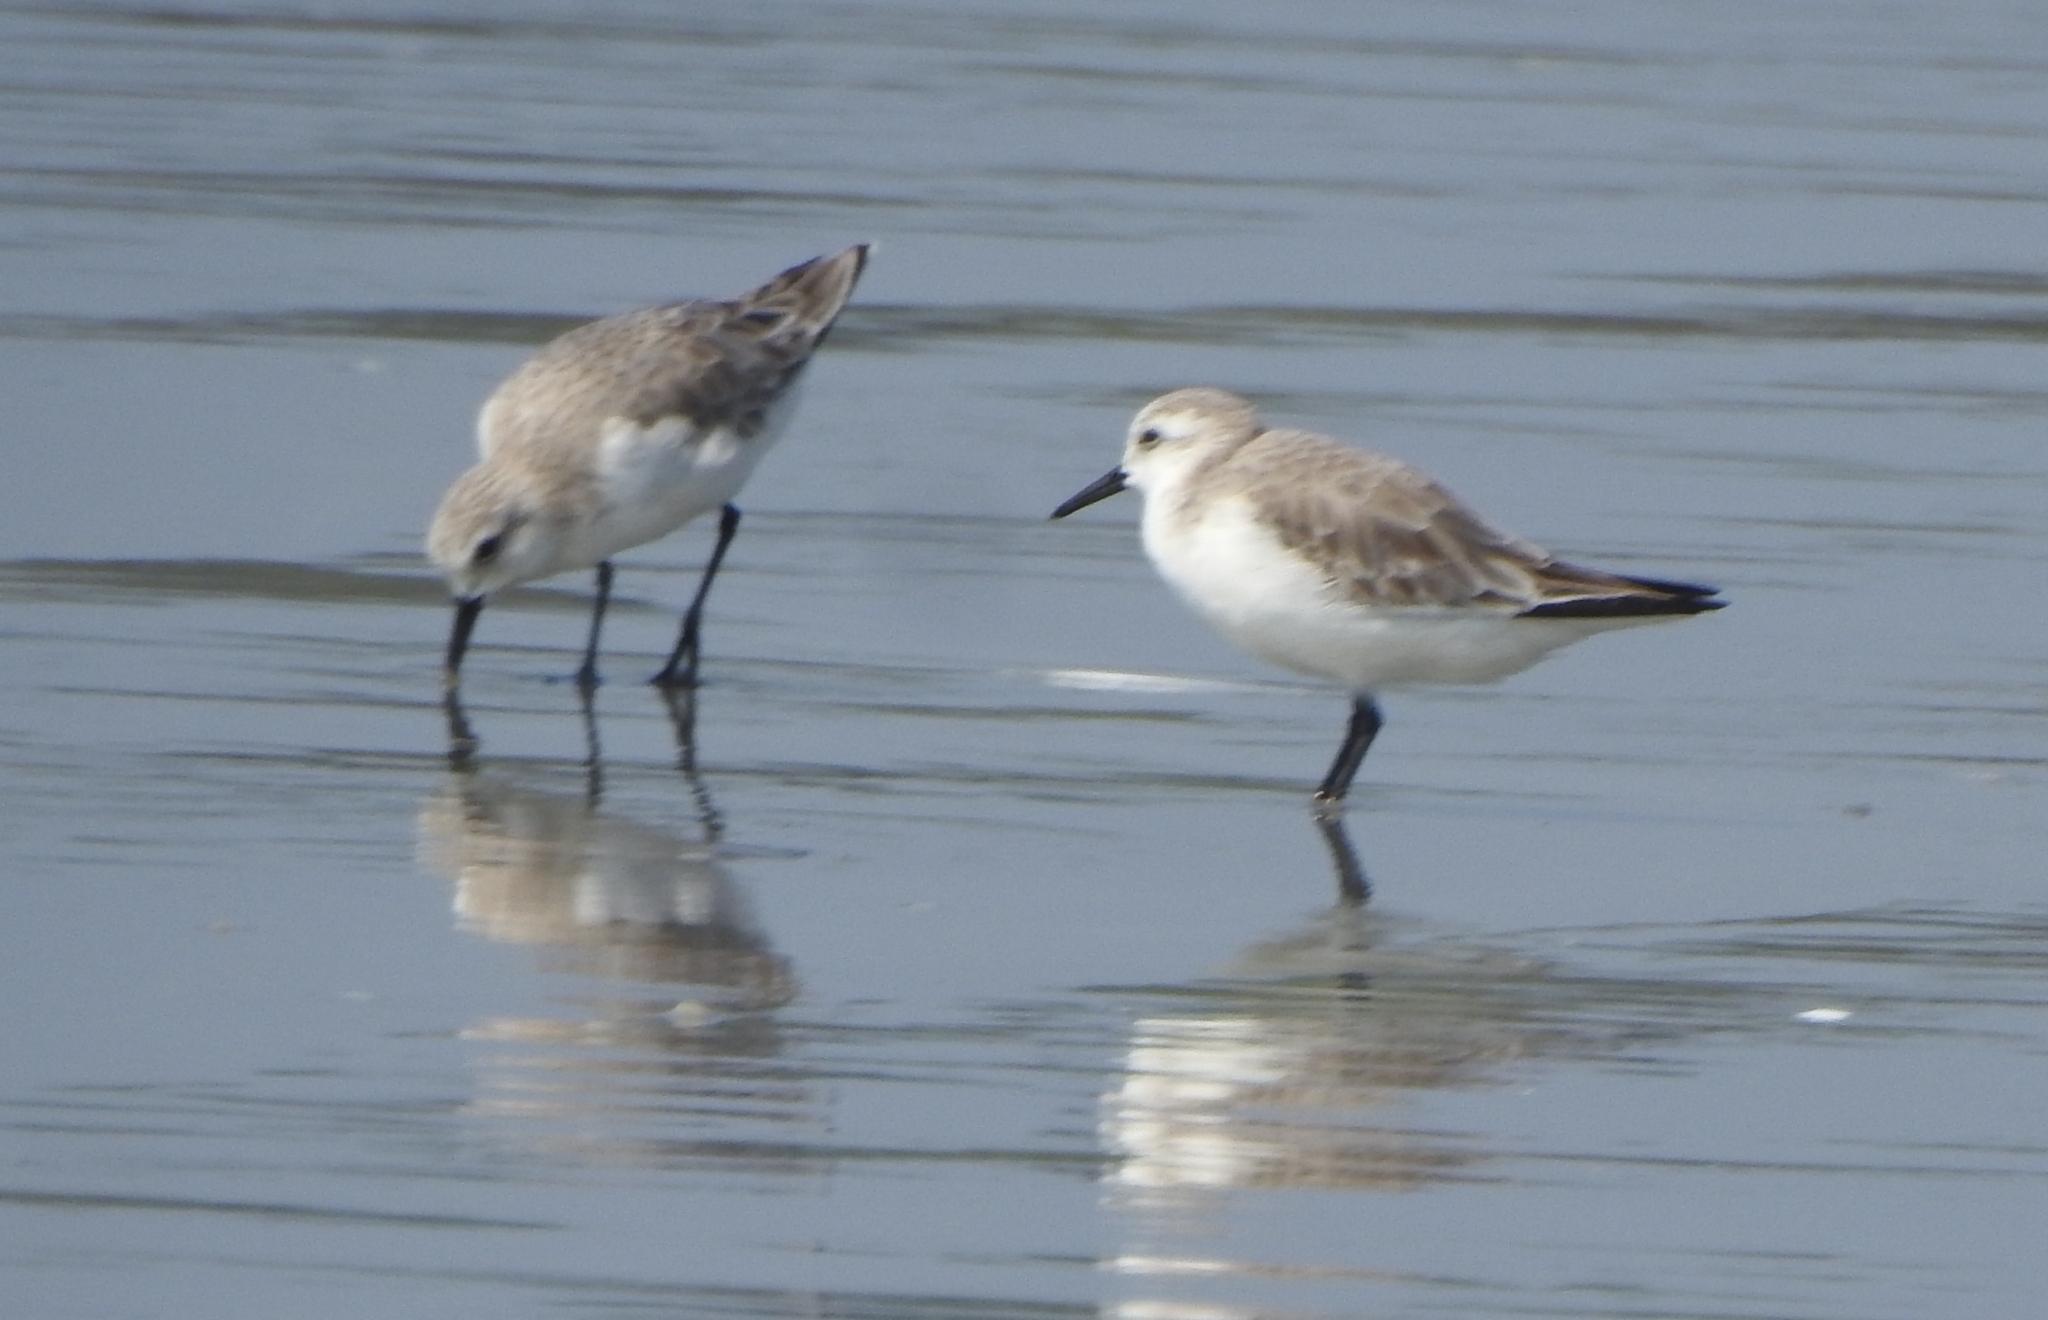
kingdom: Animalia
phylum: Chordata
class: Aves
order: Charadriiformes
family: Scolopacidae
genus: Calidris
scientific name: Calidris alba
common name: Sanderling
